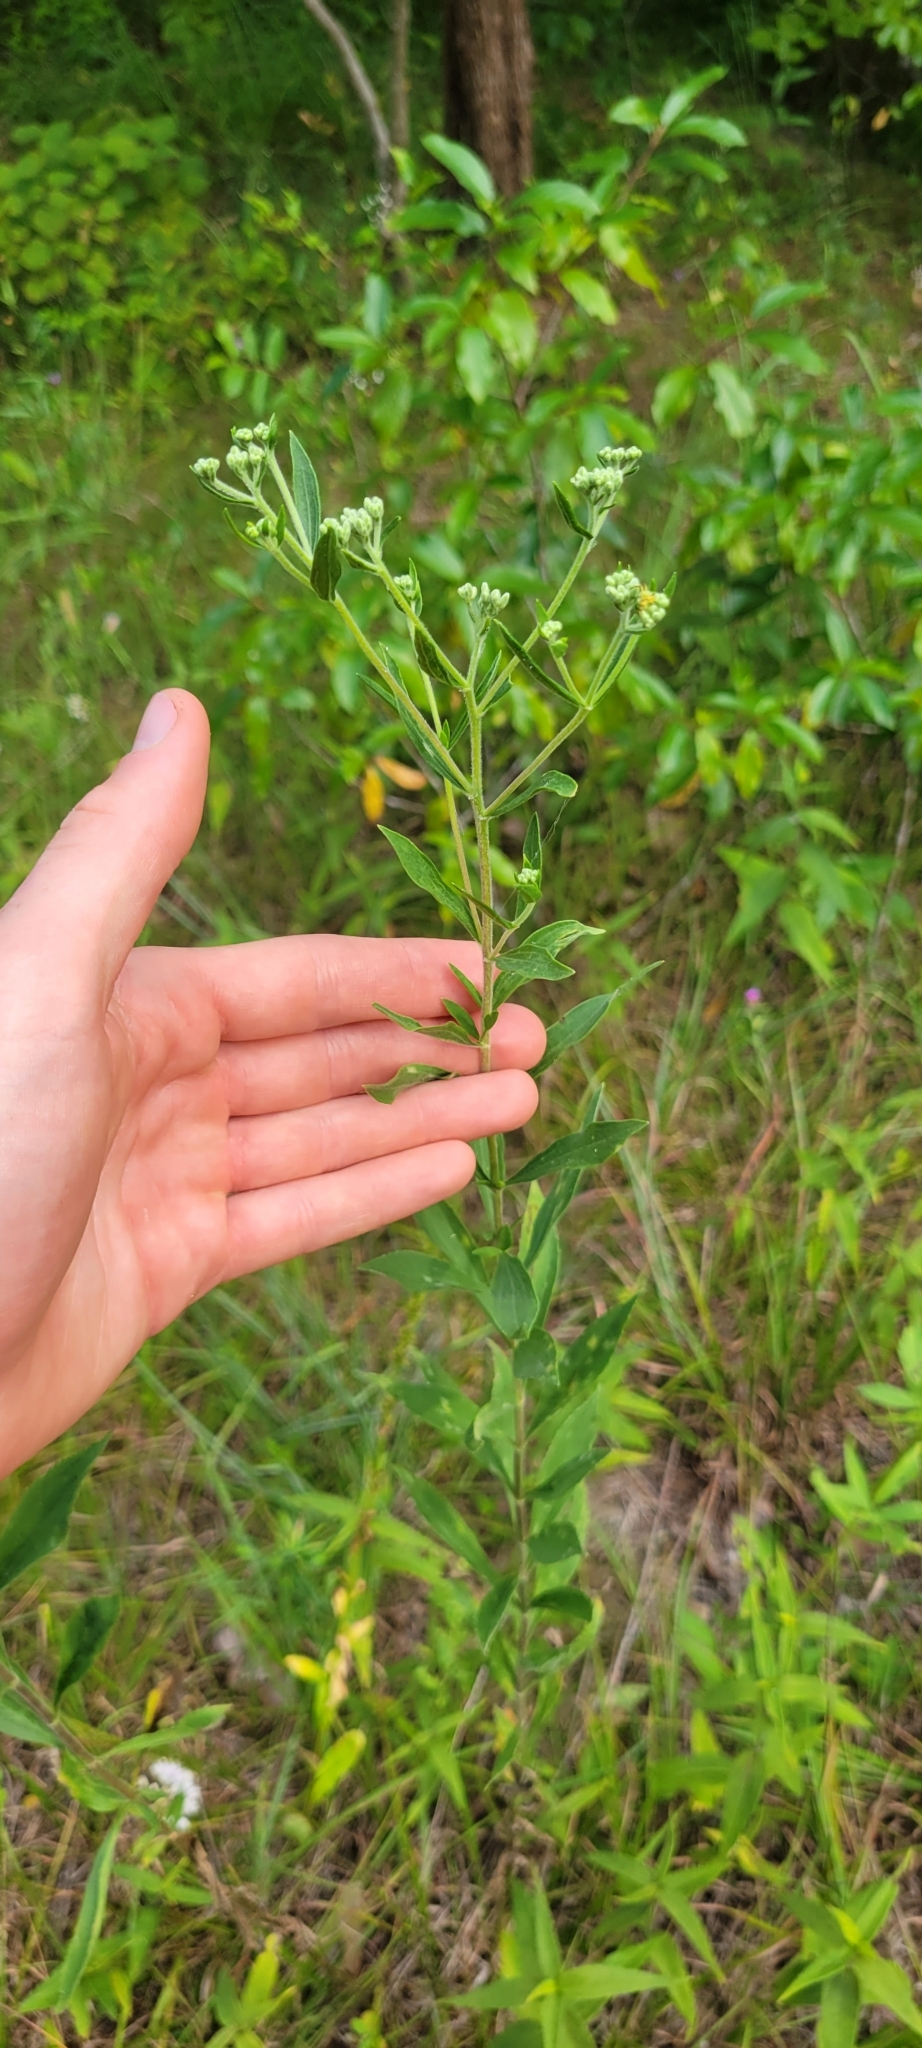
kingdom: Plantae
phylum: Tracheophyta
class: Magnoliopsida
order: Asterales
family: Asteraceae
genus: Eupatorium
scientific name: Eupatorium altissimum
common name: Tall thoroughwort
